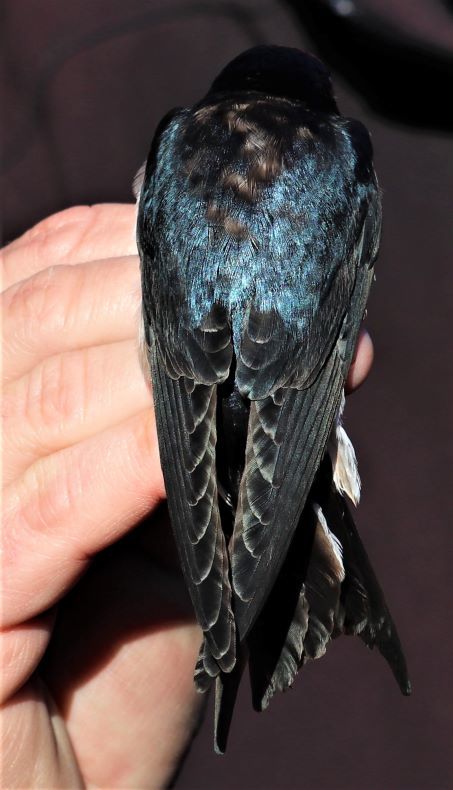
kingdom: Animalia
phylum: Chordata
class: Aves
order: Passeriformes
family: Hirundinidae
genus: Hirundo
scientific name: Hirundo dimidiata
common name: Pearl-breasted swallow
